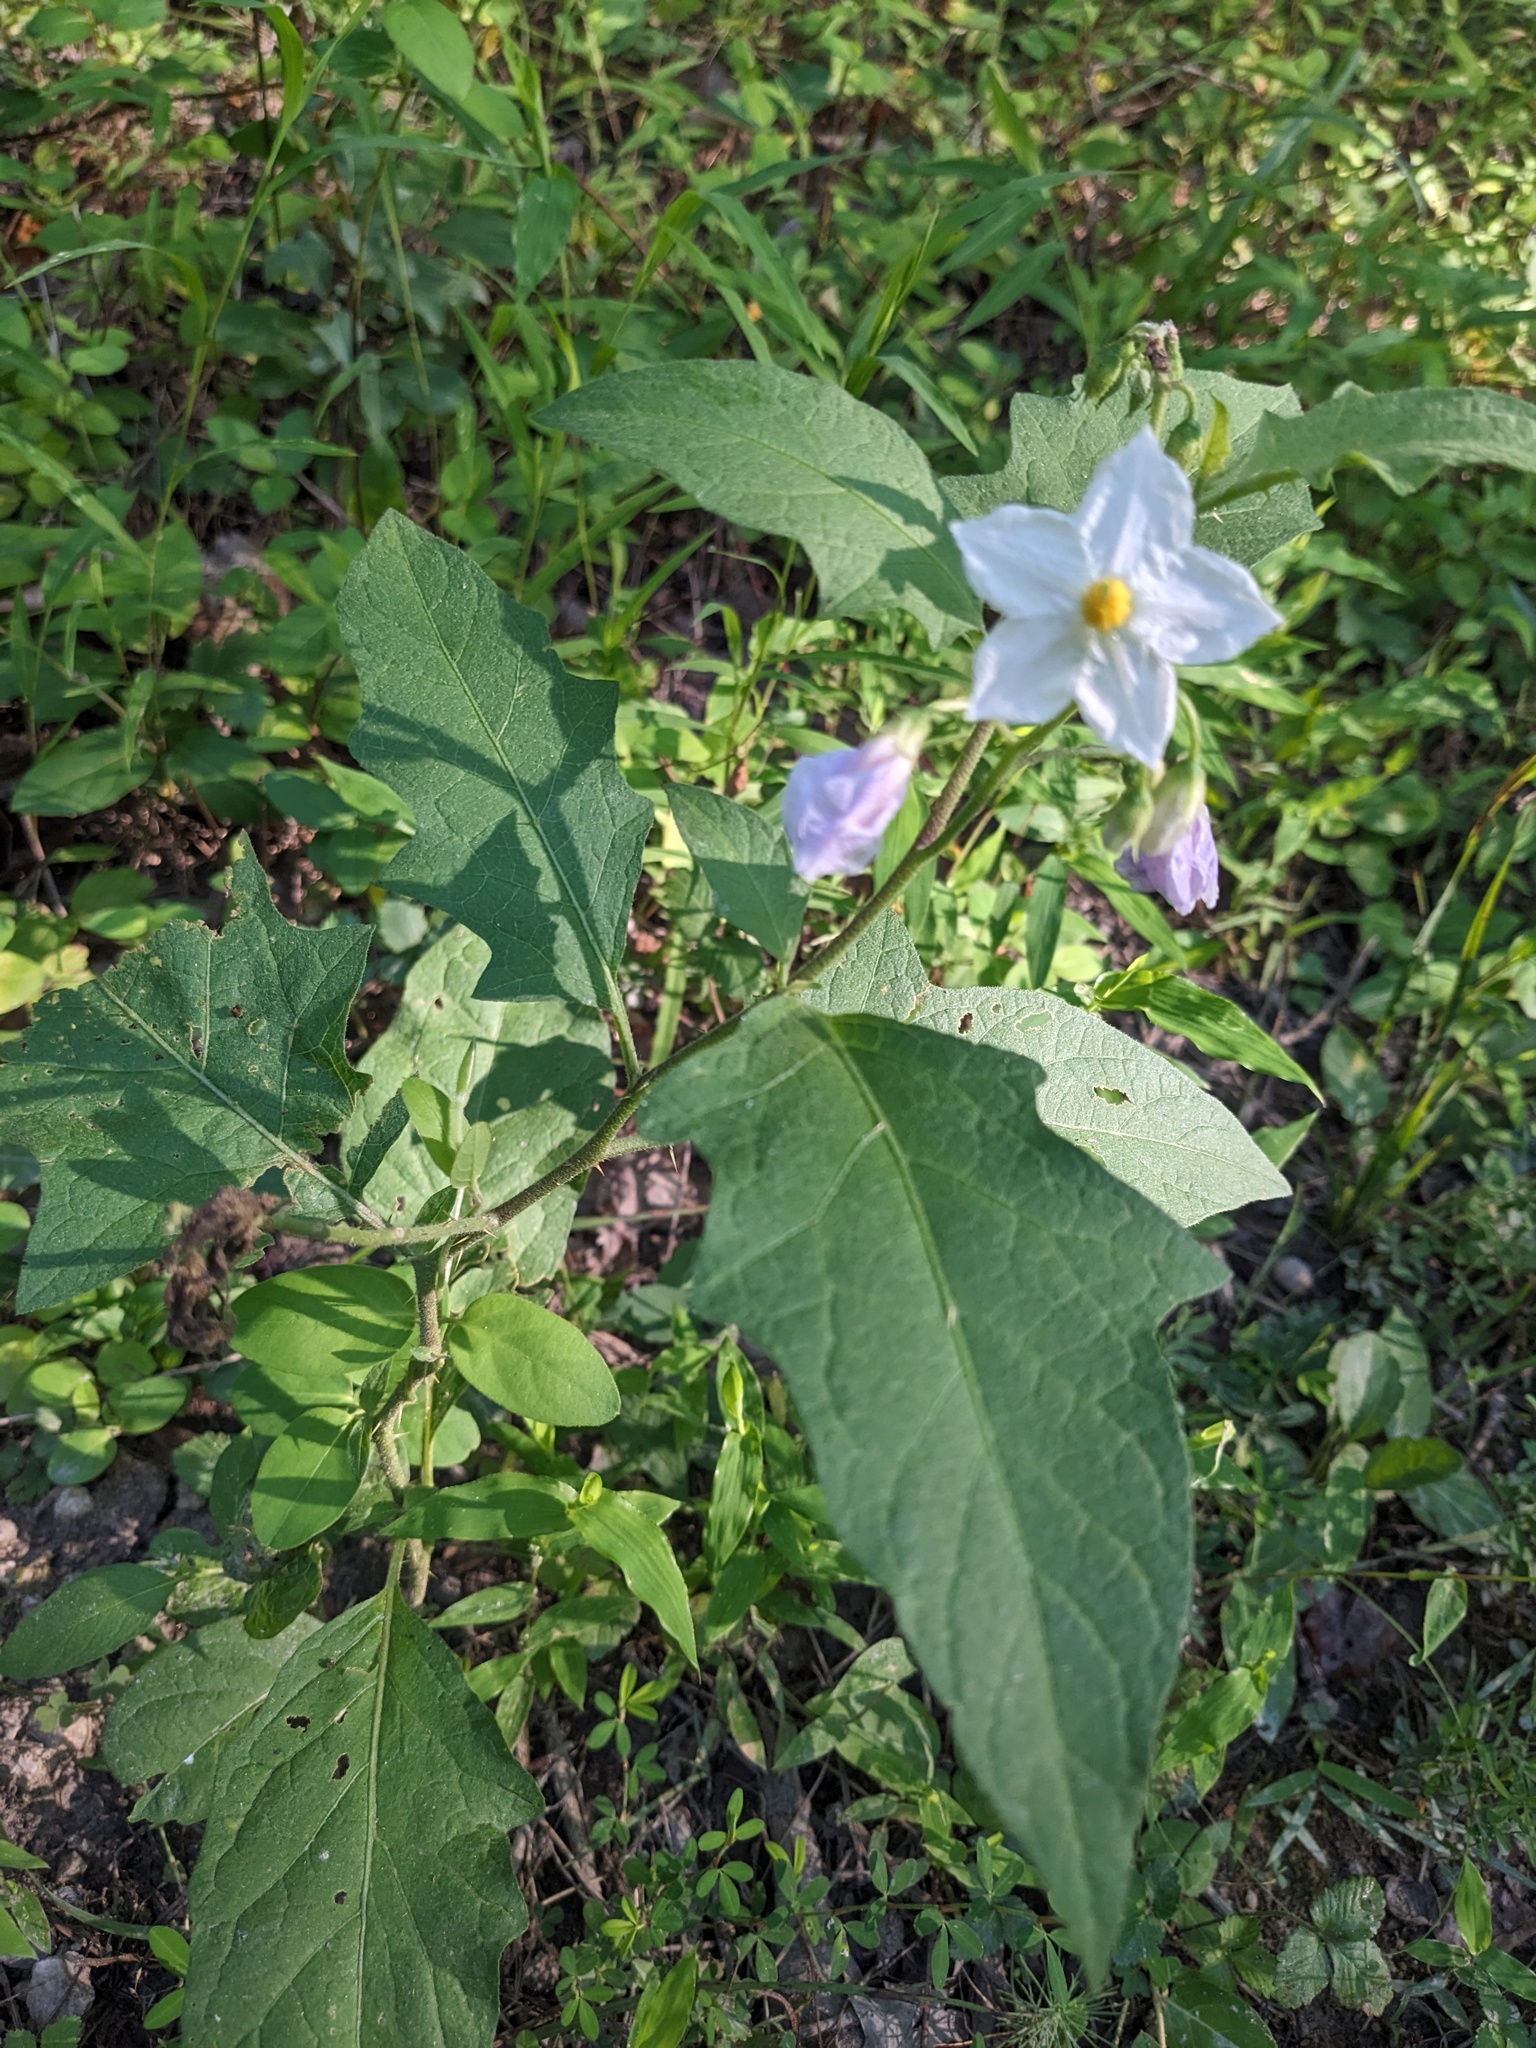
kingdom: Plantae
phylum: Tracheophyta
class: Magnoliopsida
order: Solanales
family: Solanaceae
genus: Solanum
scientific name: Solanum carolinense
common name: Horse-nettle
